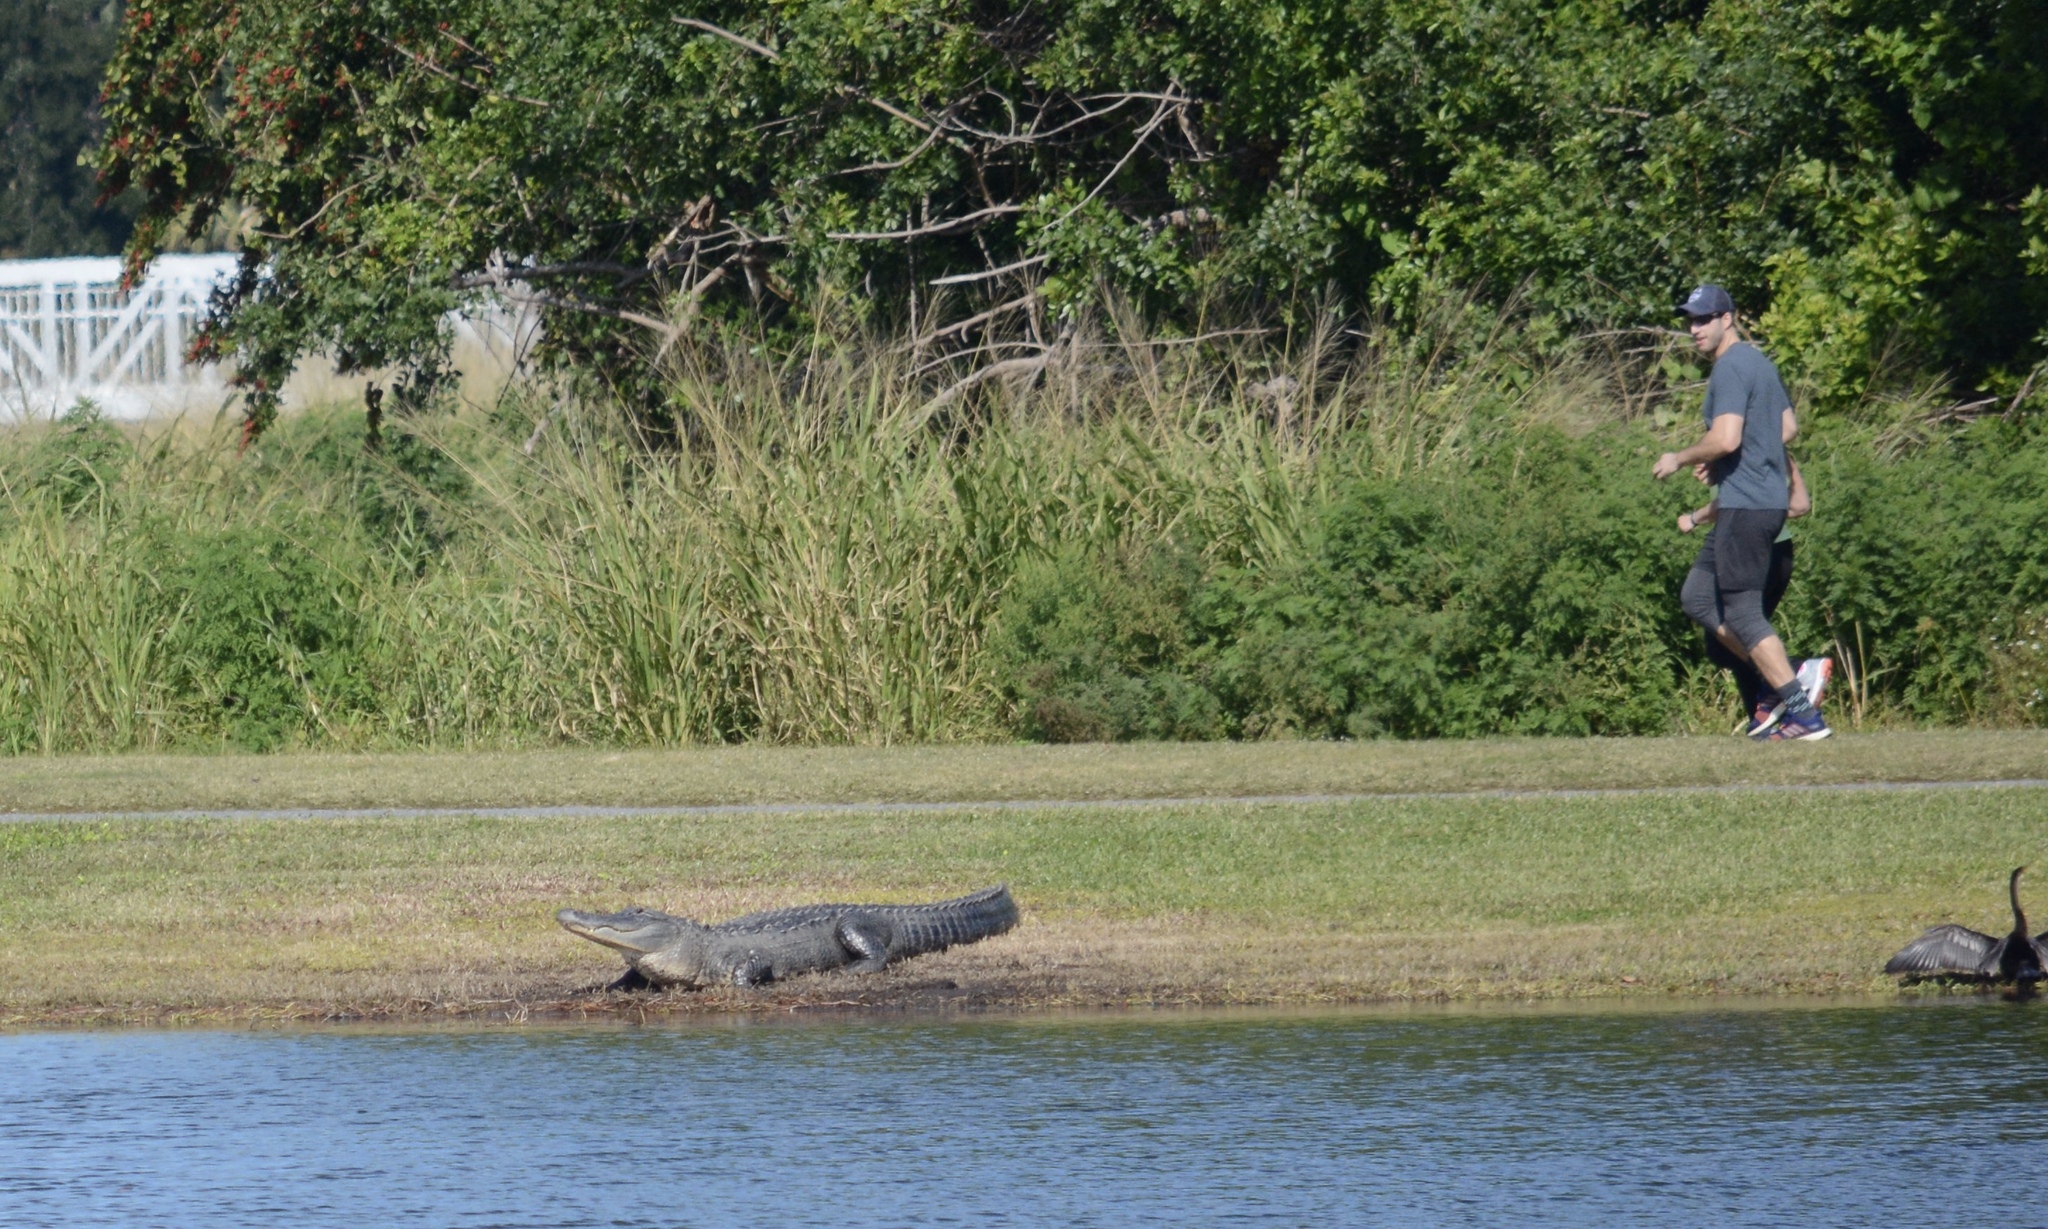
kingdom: Animalia
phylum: Chordata
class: Crocodylia
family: Alligatoridae
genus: Alligator
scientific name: Alligator mississippiensis
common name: American alligator
